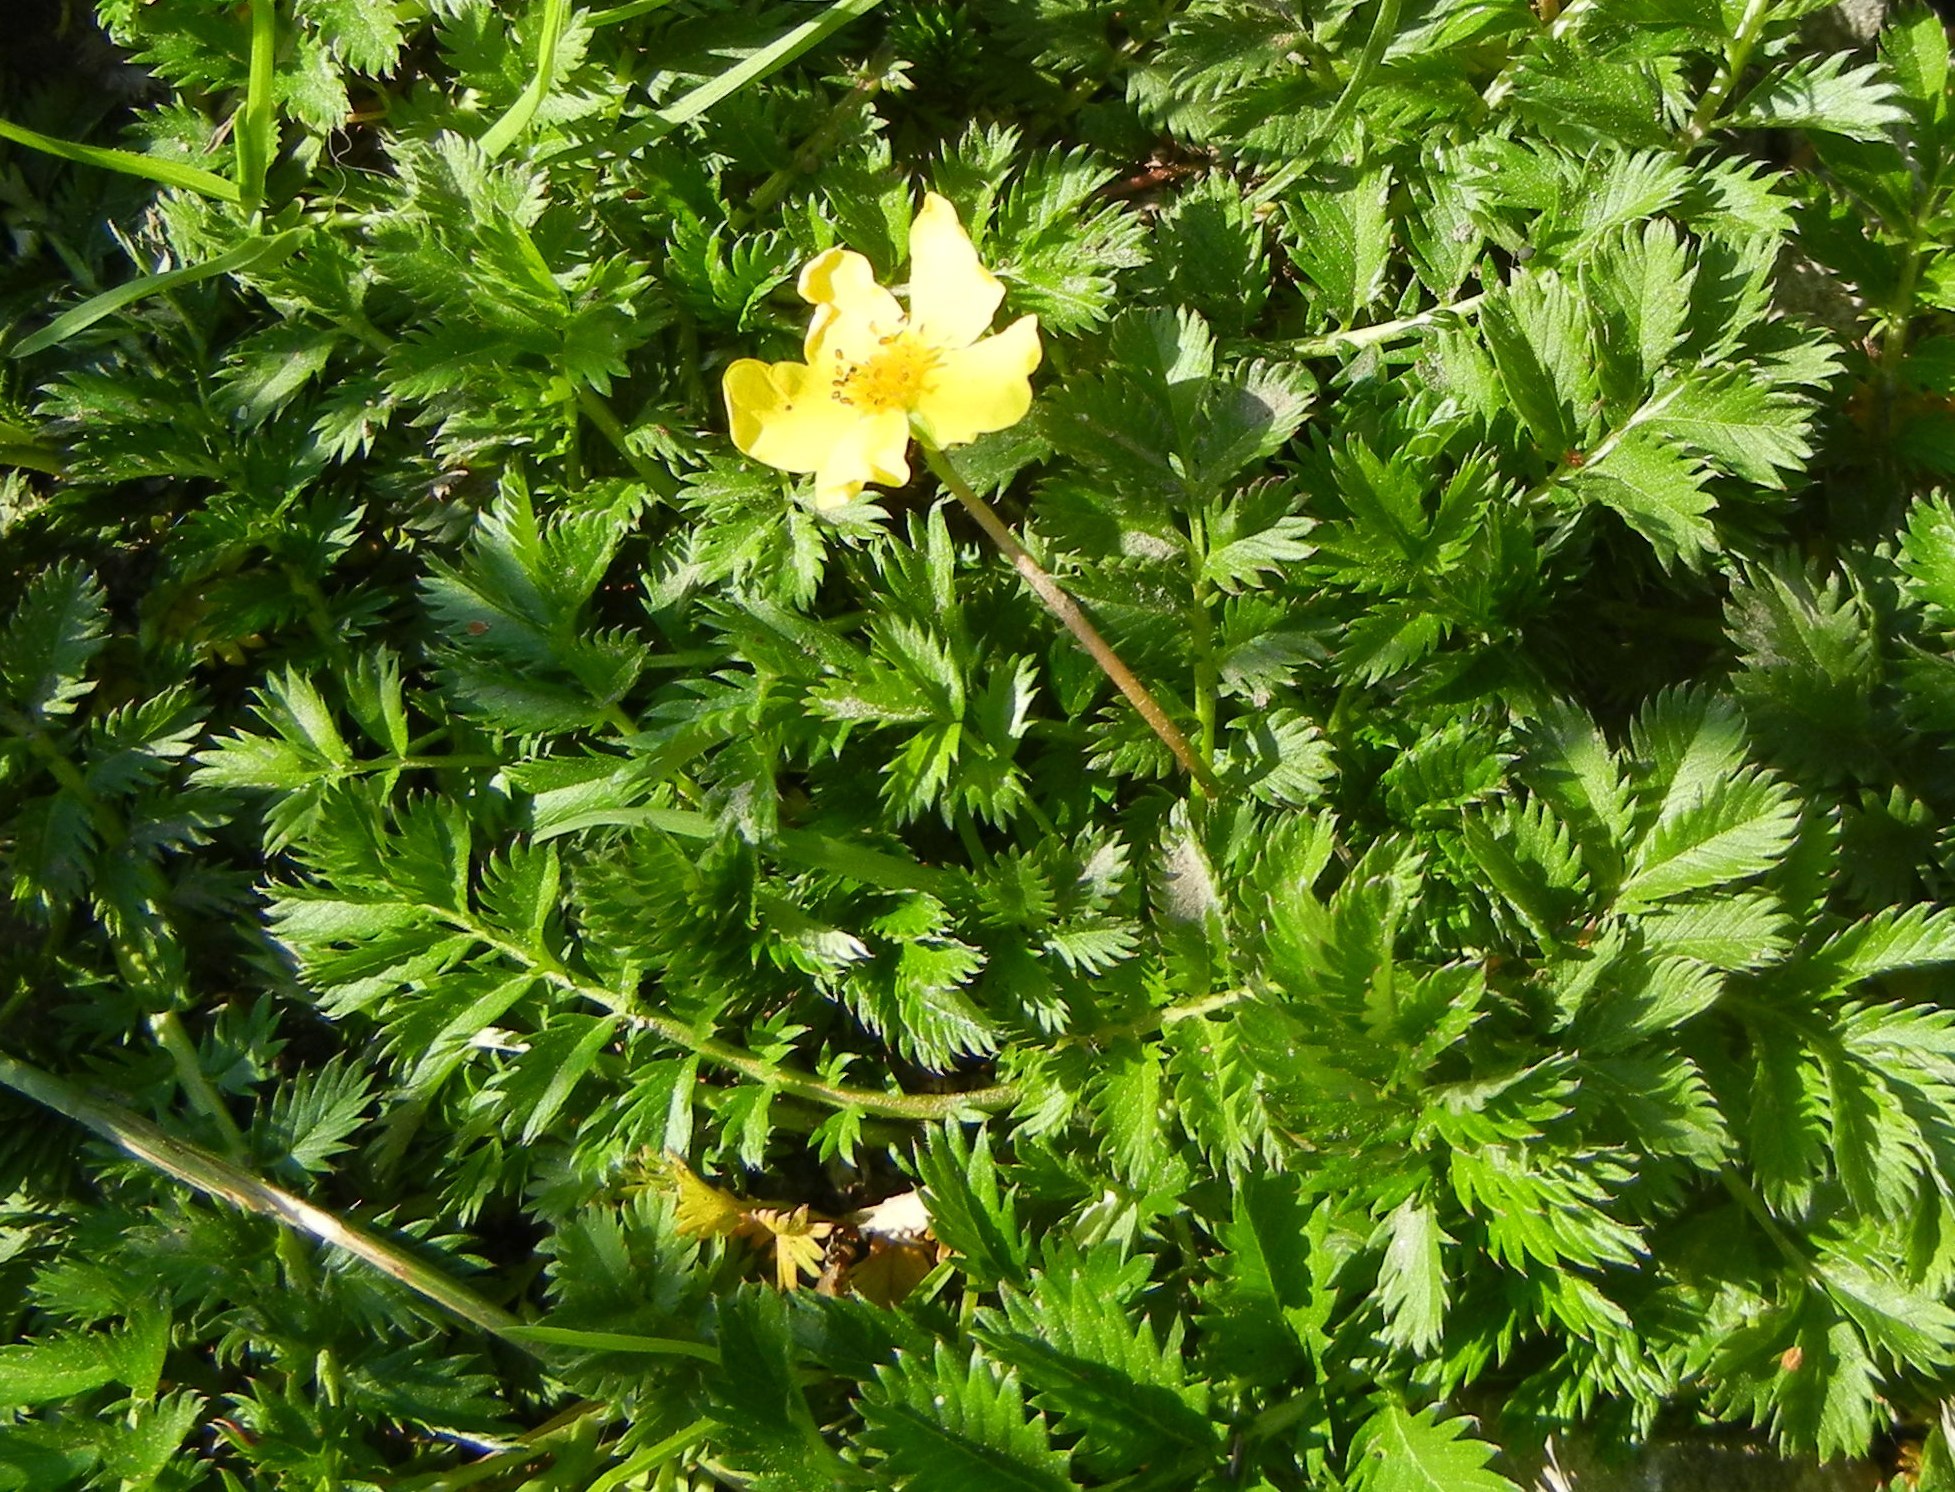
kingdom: Plantae
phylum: Tracheophyta
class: Magnoliopsida
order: Rosales
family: Rosaceae
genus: Argentina
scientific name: Argentina anserina
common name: Common silverweed
